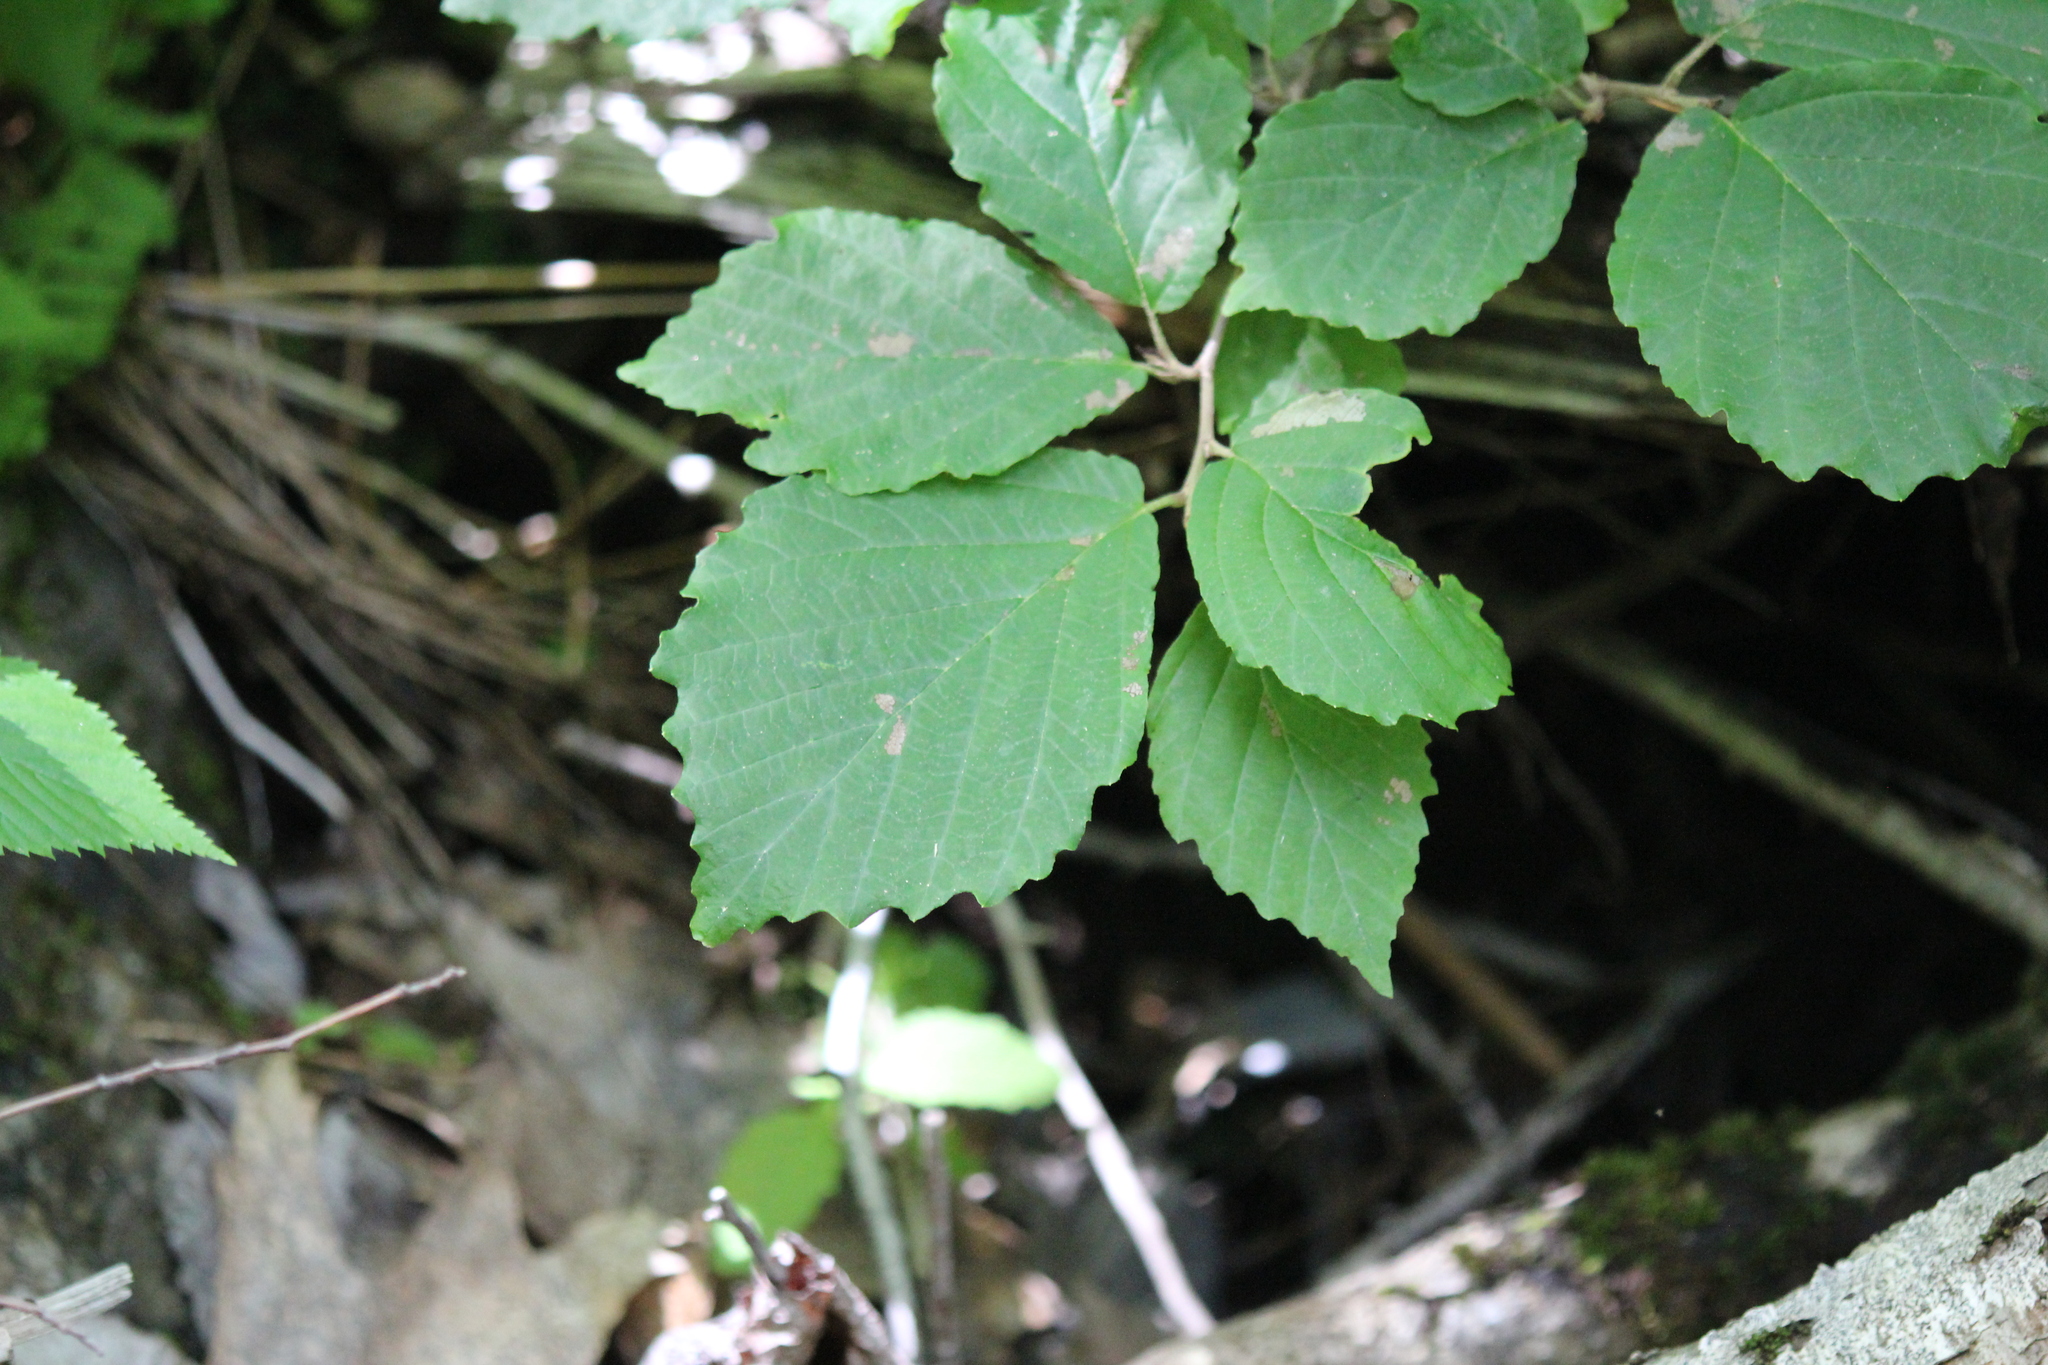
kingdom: Plantae
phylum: Tracheophyta
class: Magnoliopsida
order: Saxifragales
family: Hamamelidaceae
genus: Hamamelis
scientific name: Hamamelis virginiana
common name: Witch-hazel
